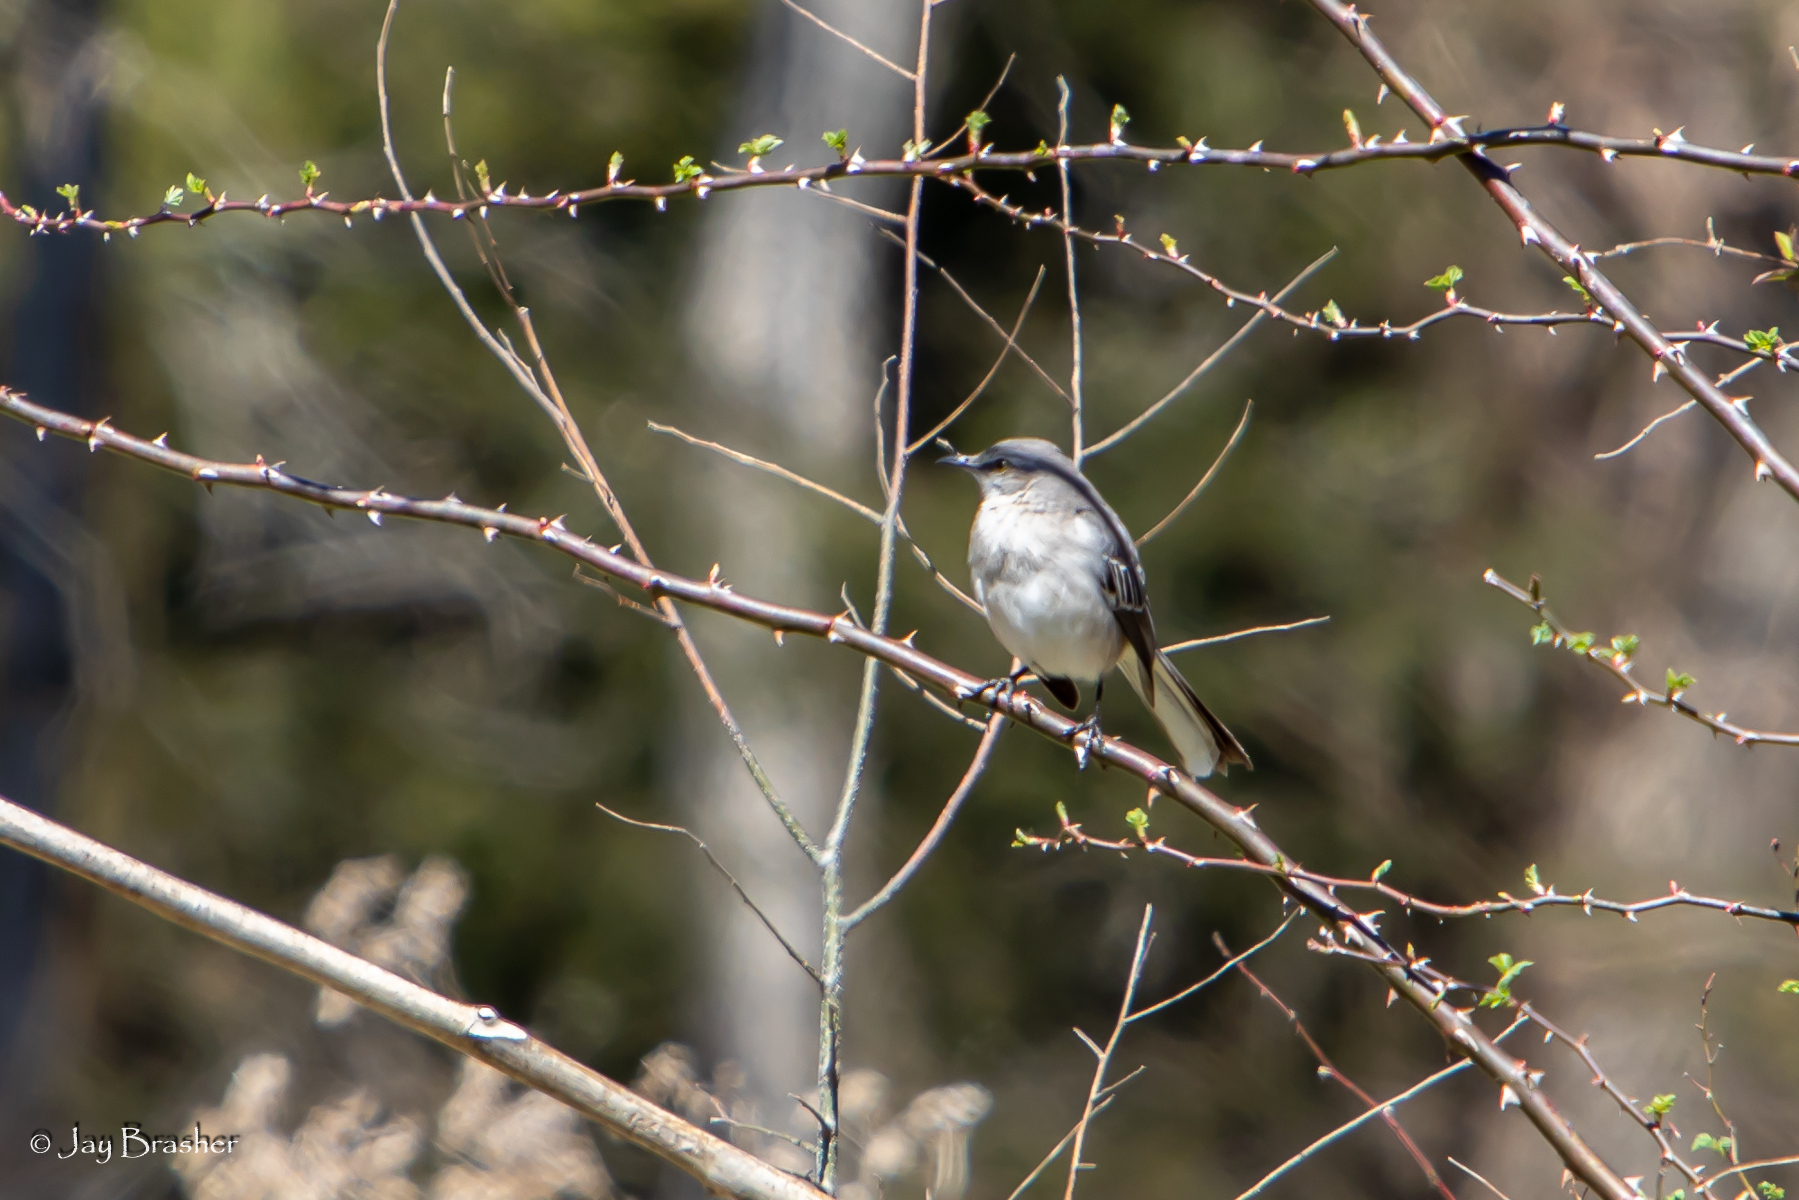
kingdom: Animalia
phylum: Chordata
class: Aves
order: Passeriformes
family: Mimidae
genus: Mimus
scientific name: Mimus polyglottos
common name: Northern mockingbird
